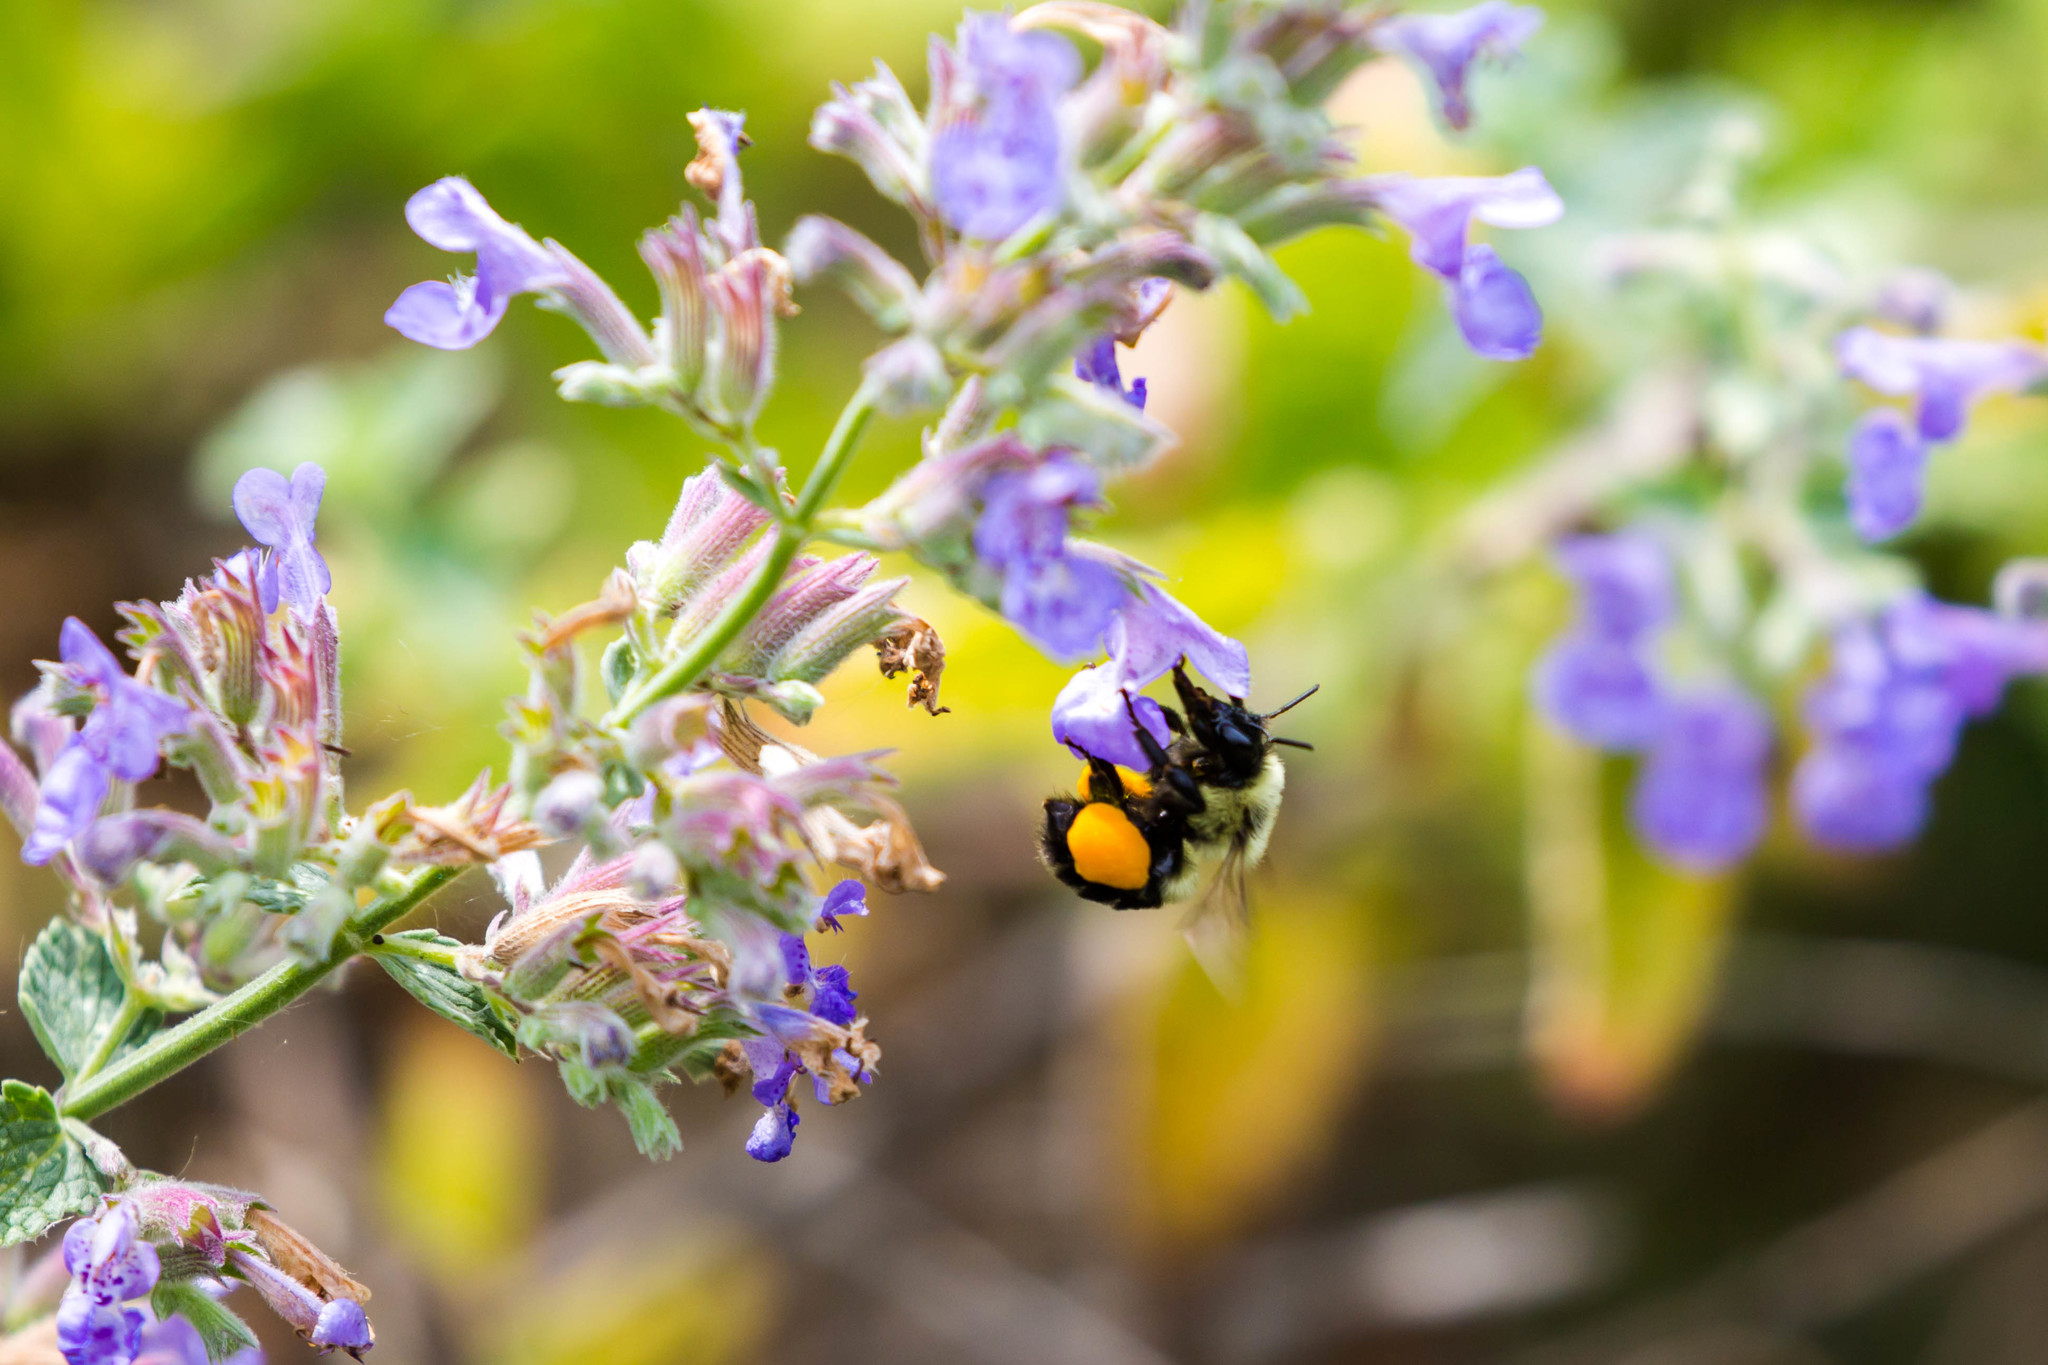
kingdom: Animalia
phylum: Arthropoda
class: Insecta
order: Hymenoptera
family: Apidae
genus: Bombus
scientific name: Bombus impatiens
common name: Common eastern bumble bee
